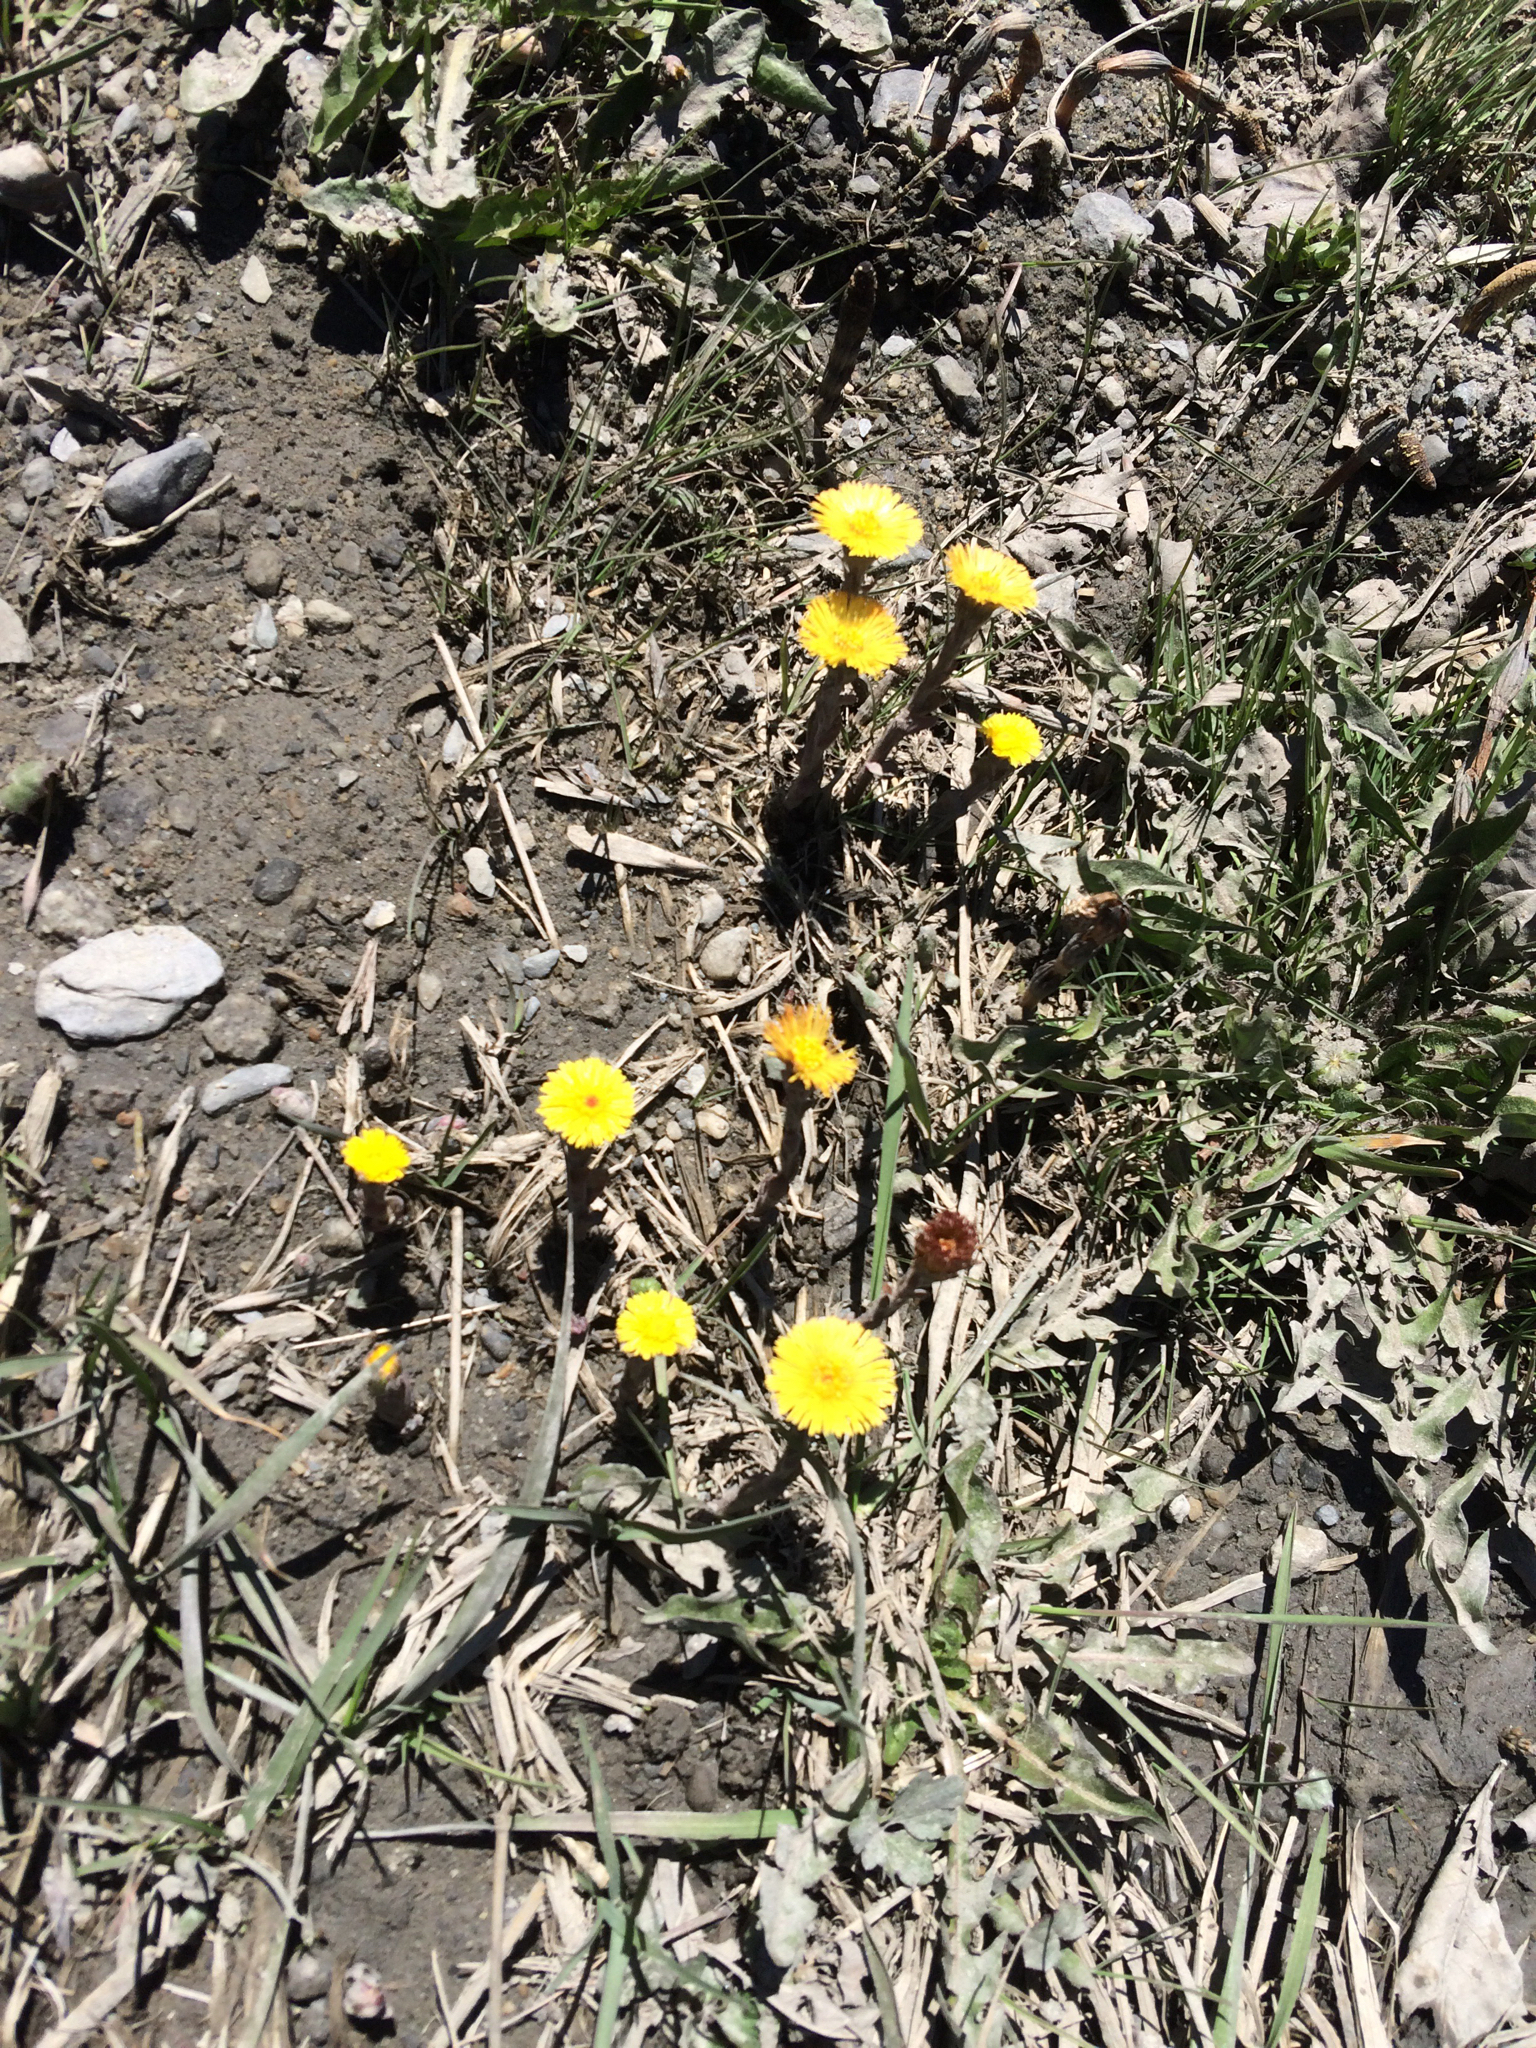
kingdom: Plantae
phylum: Tracheophyta
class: Magnoliopsida
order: Asterales
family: Asteraceae
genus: Tussilago
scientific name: Tussilago farfara
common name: Coltsfoot
